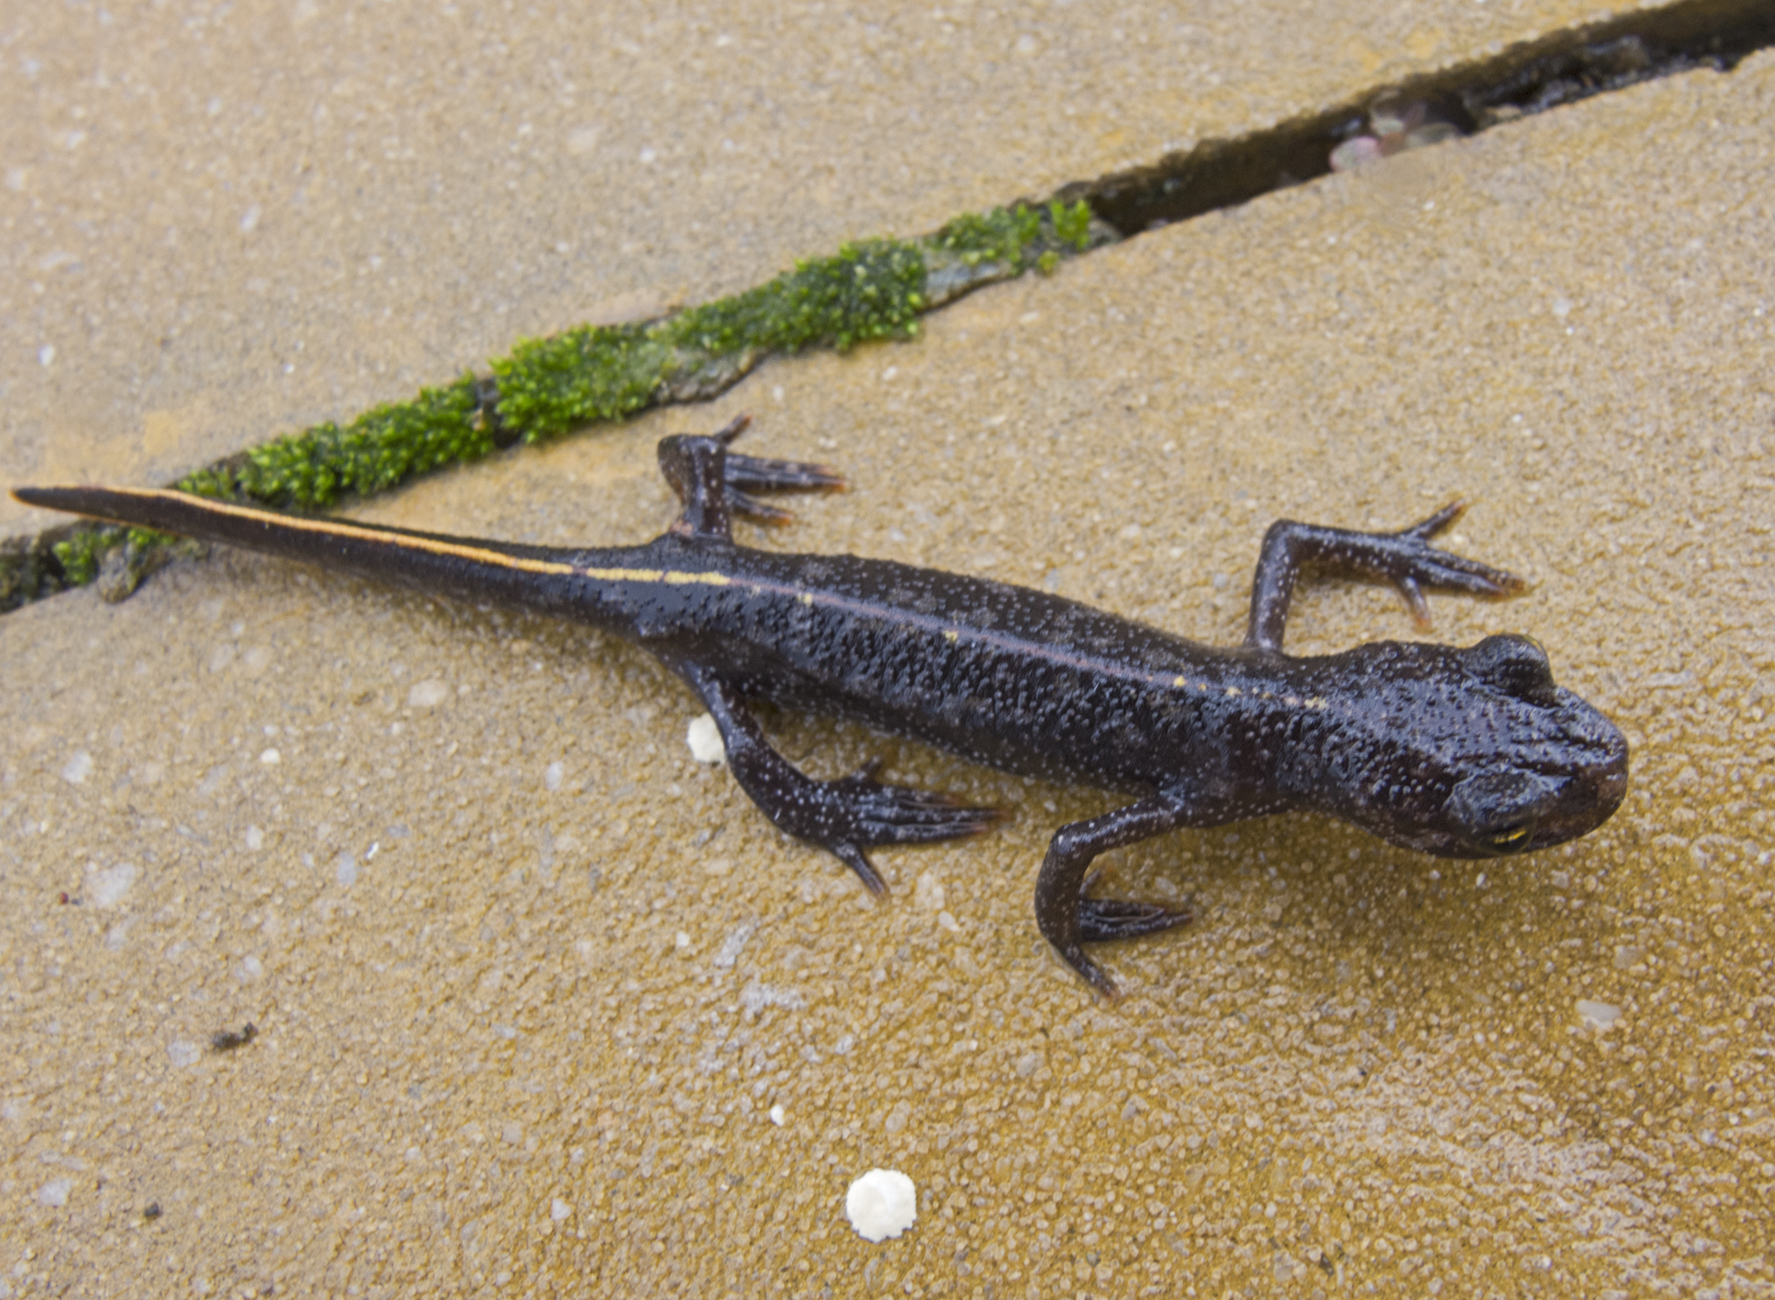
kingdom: Animalia
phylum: Chordata
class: Amphibia
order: Caudata
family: Salamandridae
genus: Triturus
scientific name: Triturus ivanbureschi
